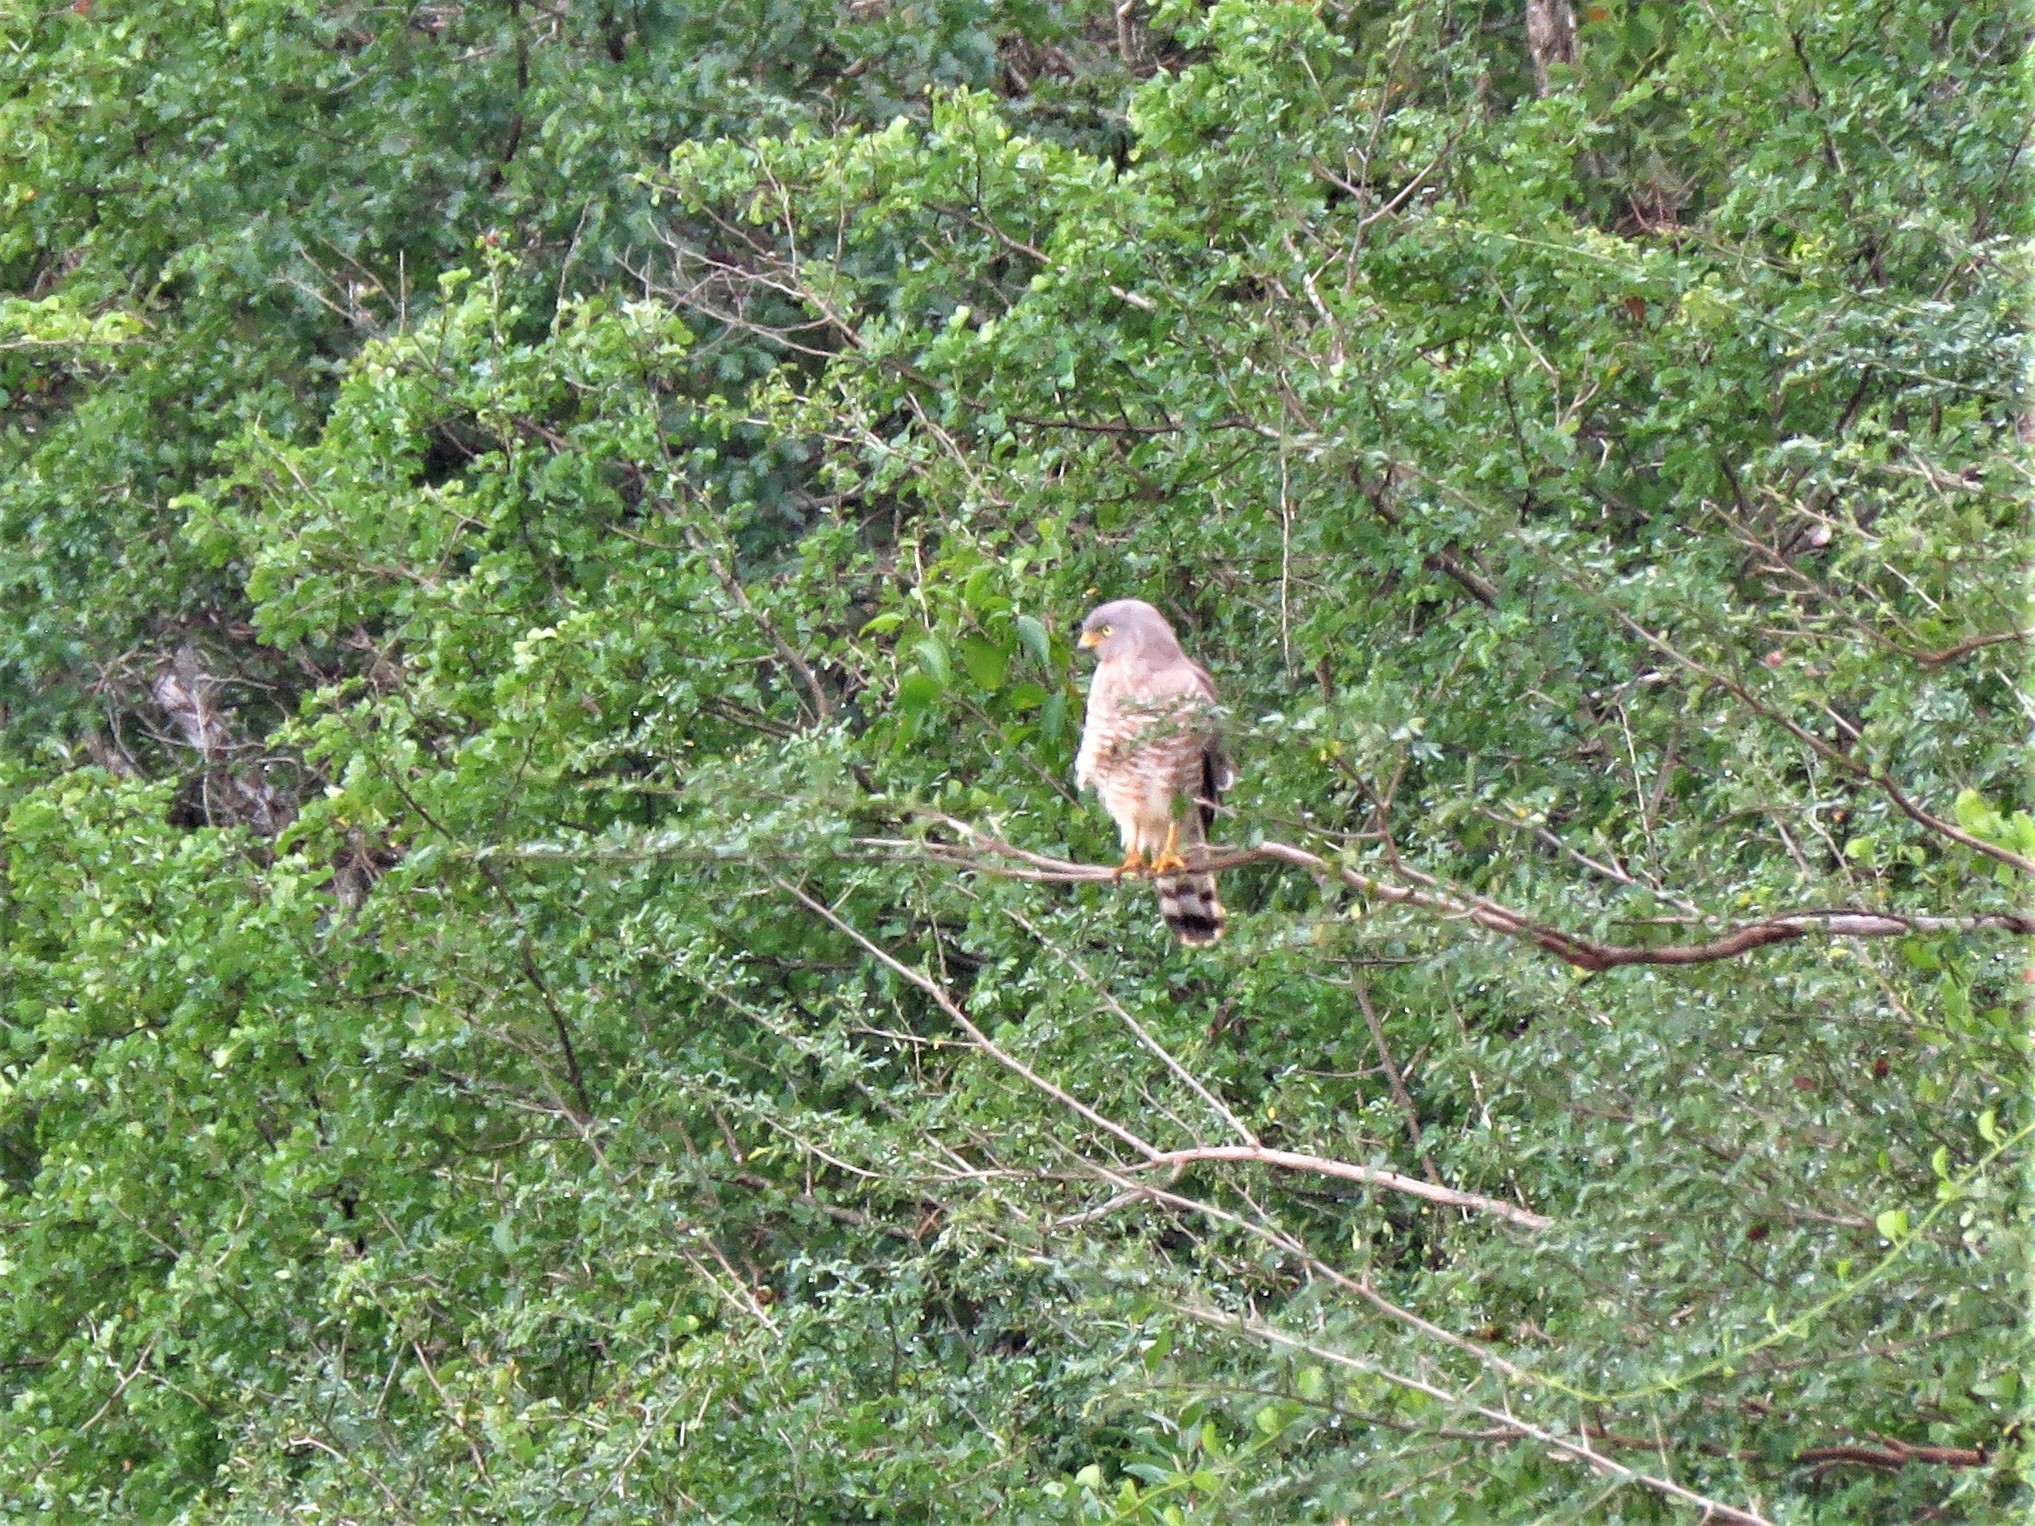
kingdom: Animalia
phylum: Chordata
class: Aves
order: Accipitriformes
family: Accipitridae
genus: Rupornis
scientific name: Rupornis magnirostris
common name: Roadside hawk
